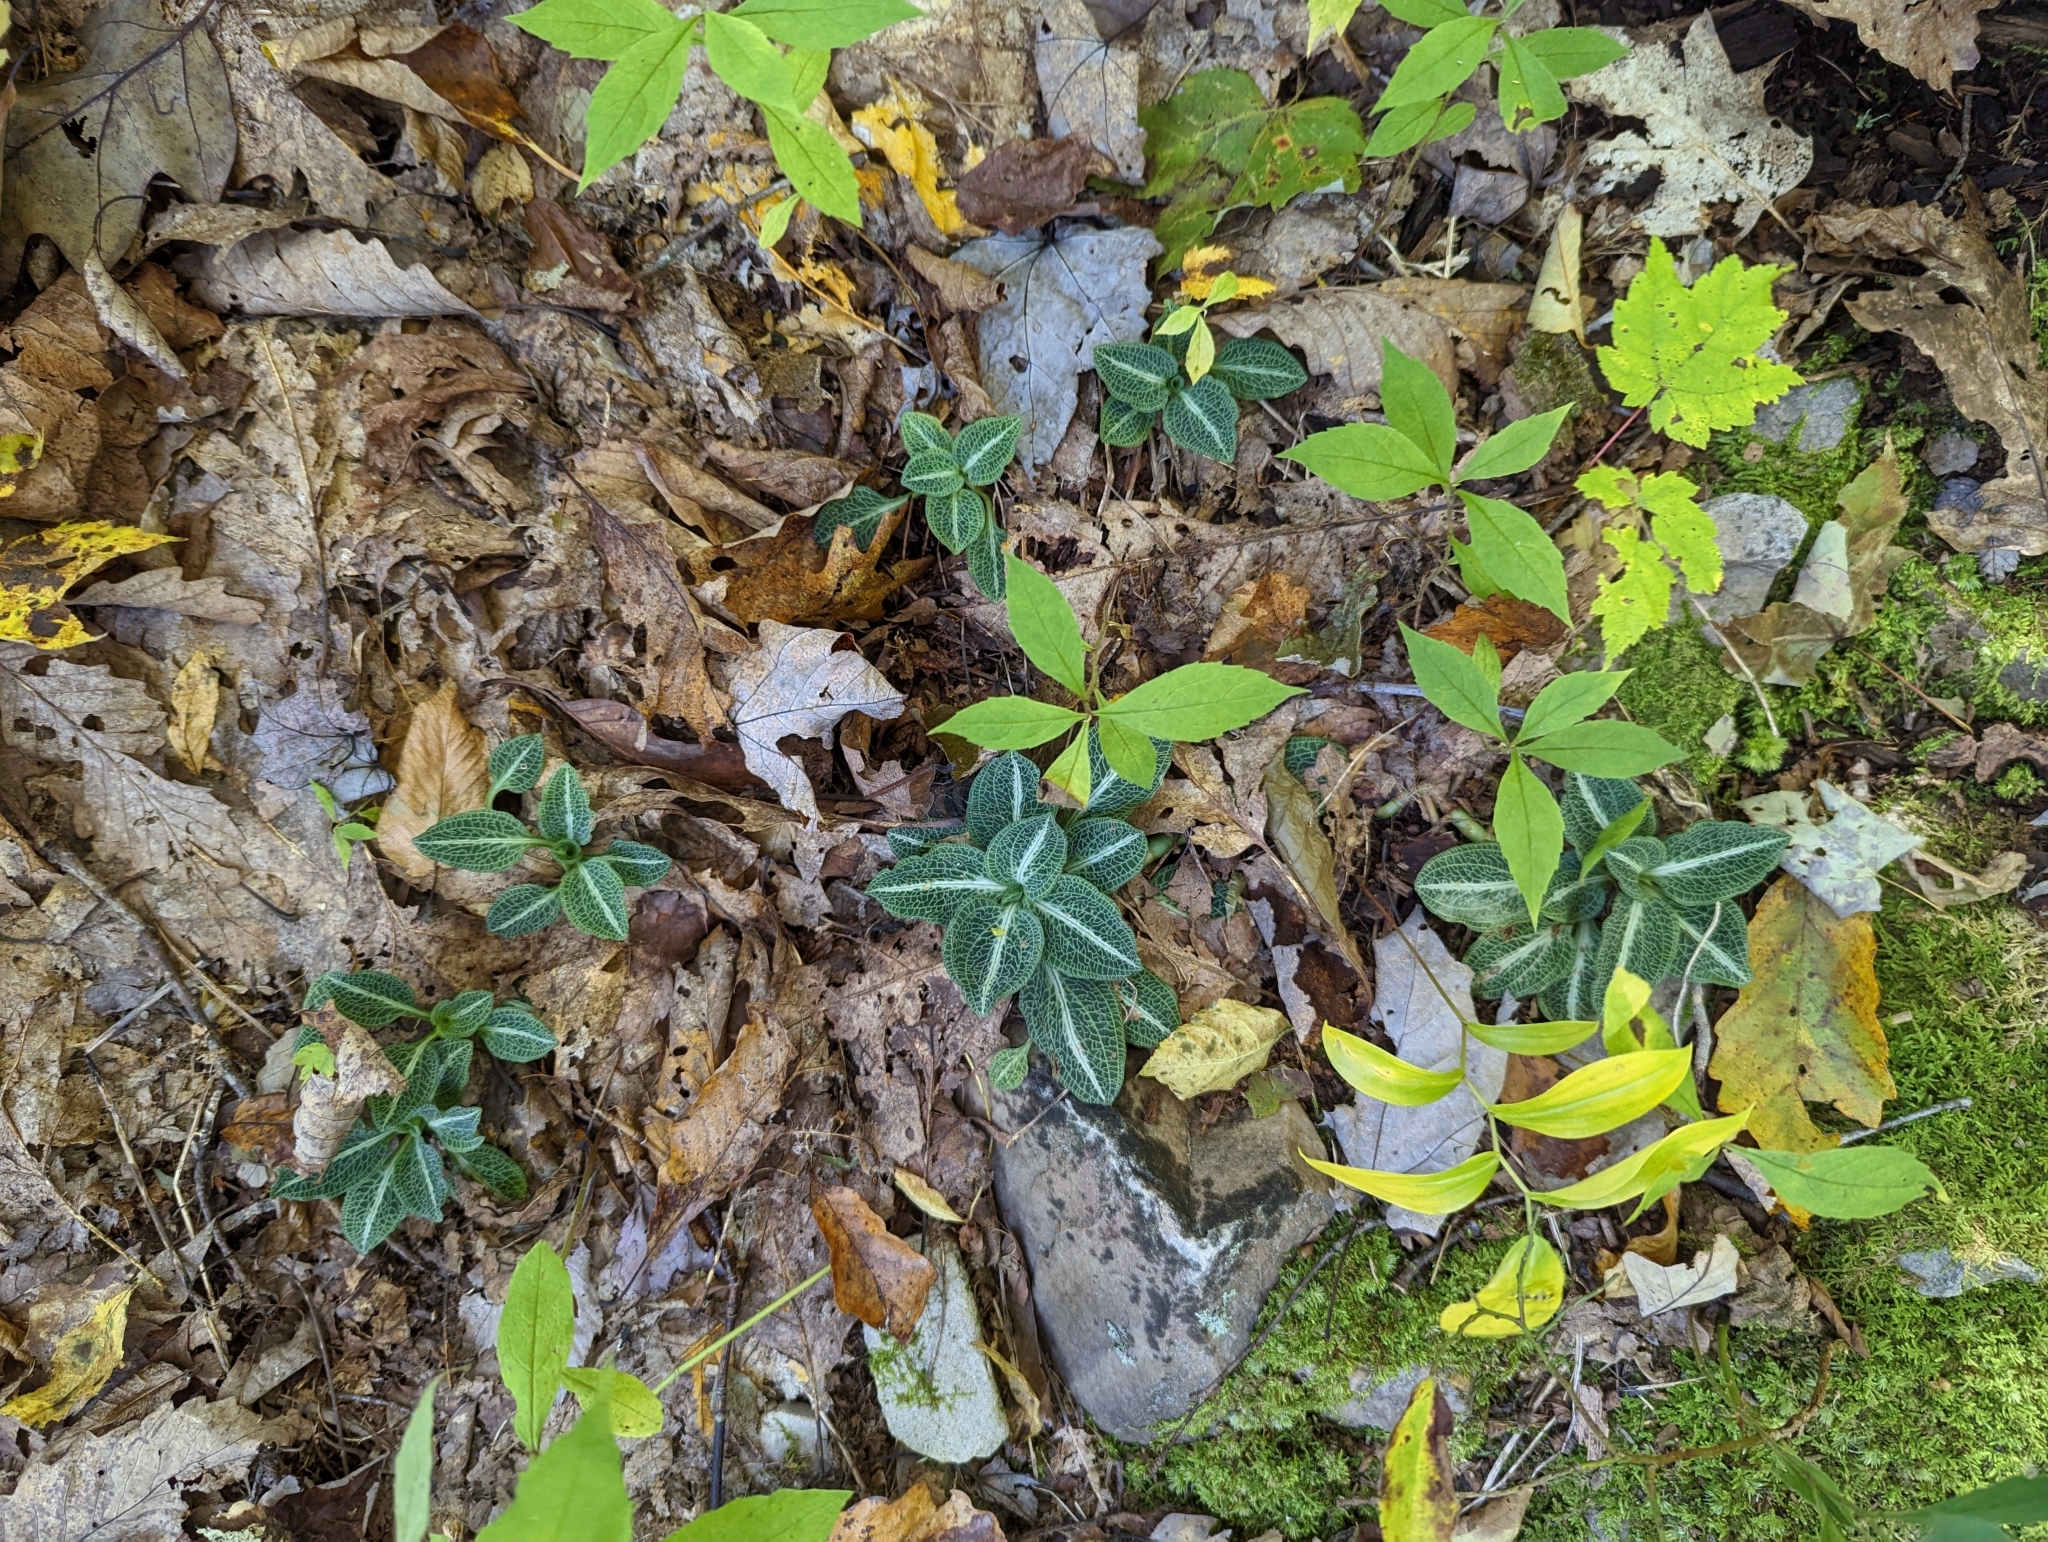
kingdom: Plantae
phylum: Tracheophyta
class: Liliopsida
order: Asparagales
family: Orchidaceae
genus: Goodyera
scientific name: Goodyera pubescens
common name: Downy rattlesnake-plantain
